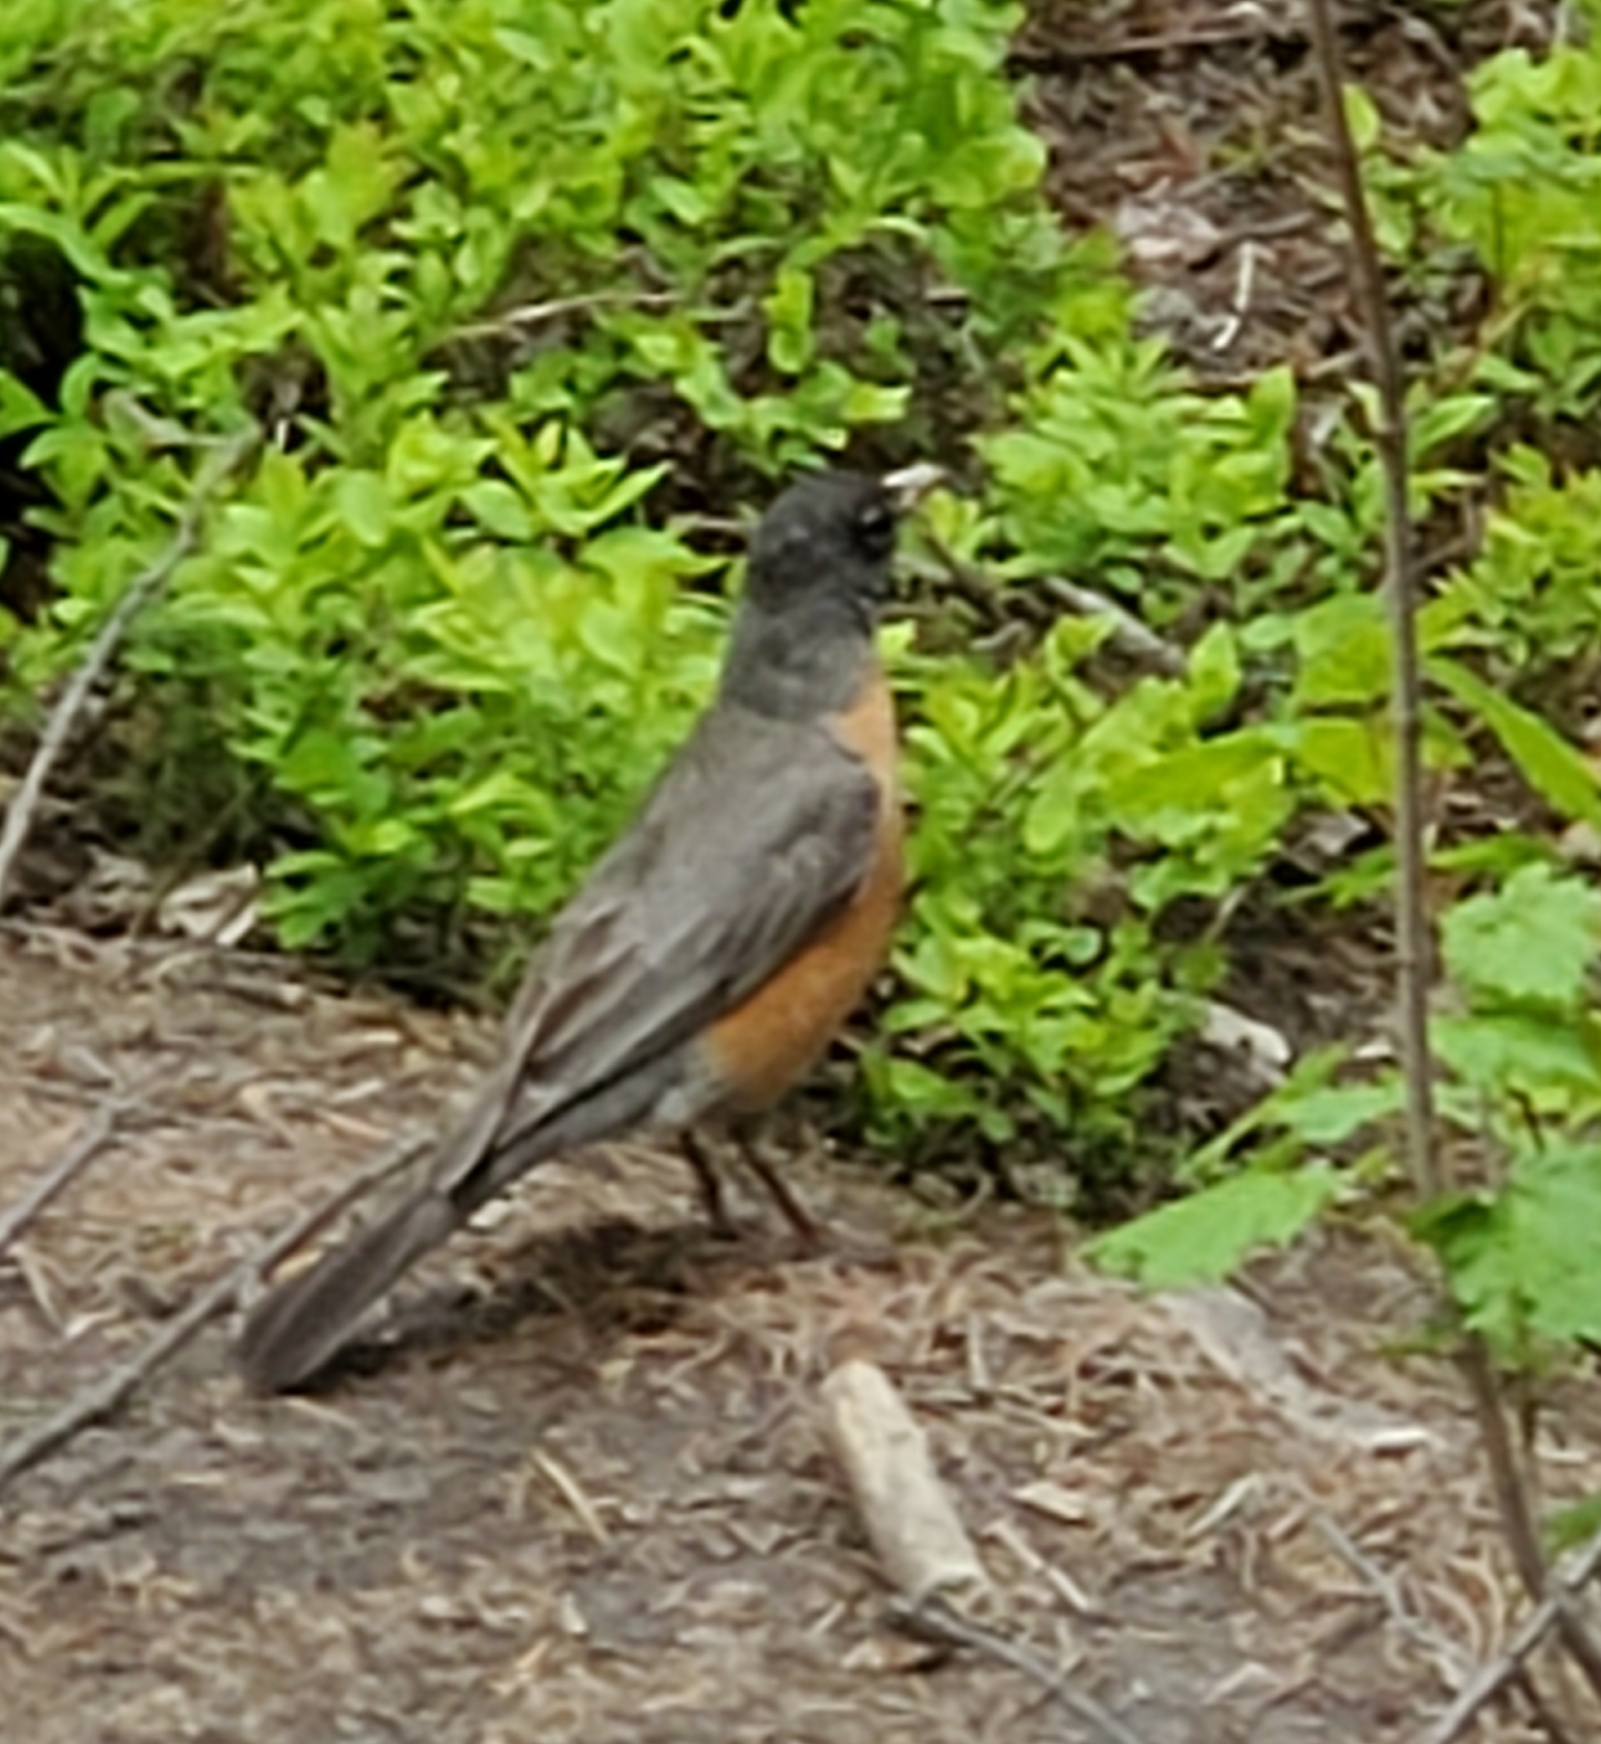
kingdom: Animalia
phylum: Chordata
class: Aves
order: Passeriformes
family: Turdidae
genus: Turdus
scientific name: Turdus migratorius
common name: American robin
